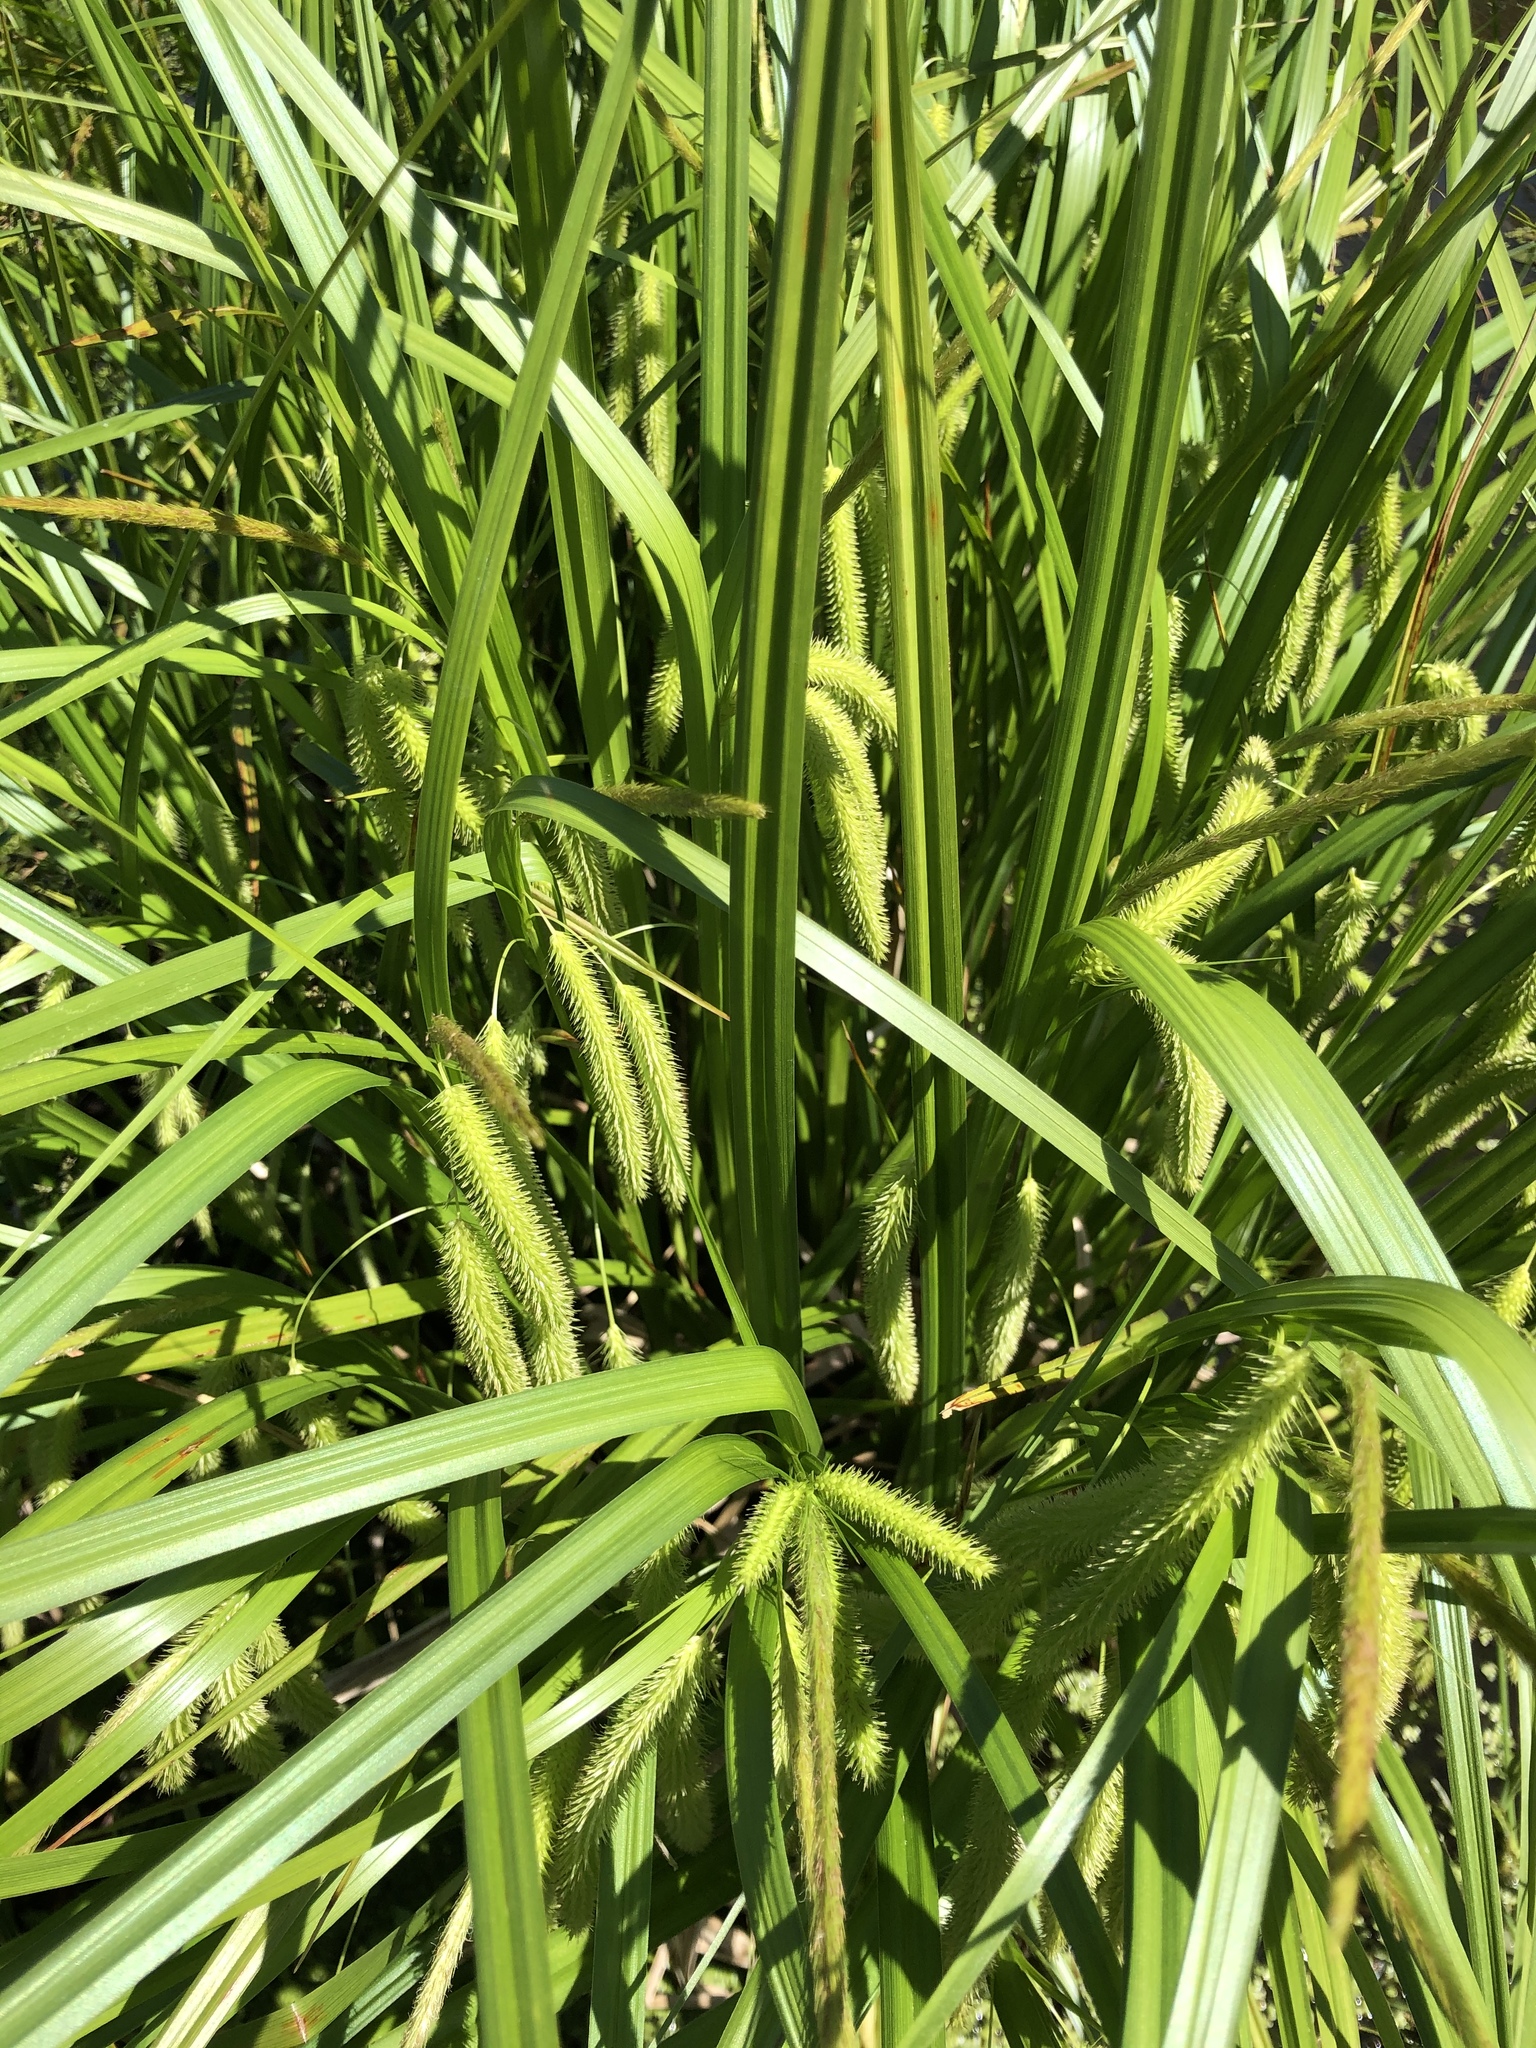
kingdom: Plantae
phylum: Tracheophyta
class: Liliopsida
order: Poales
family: Cyperaceae
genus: Carex
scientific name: Carex pseudocyperus
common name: Cyperus sedge
